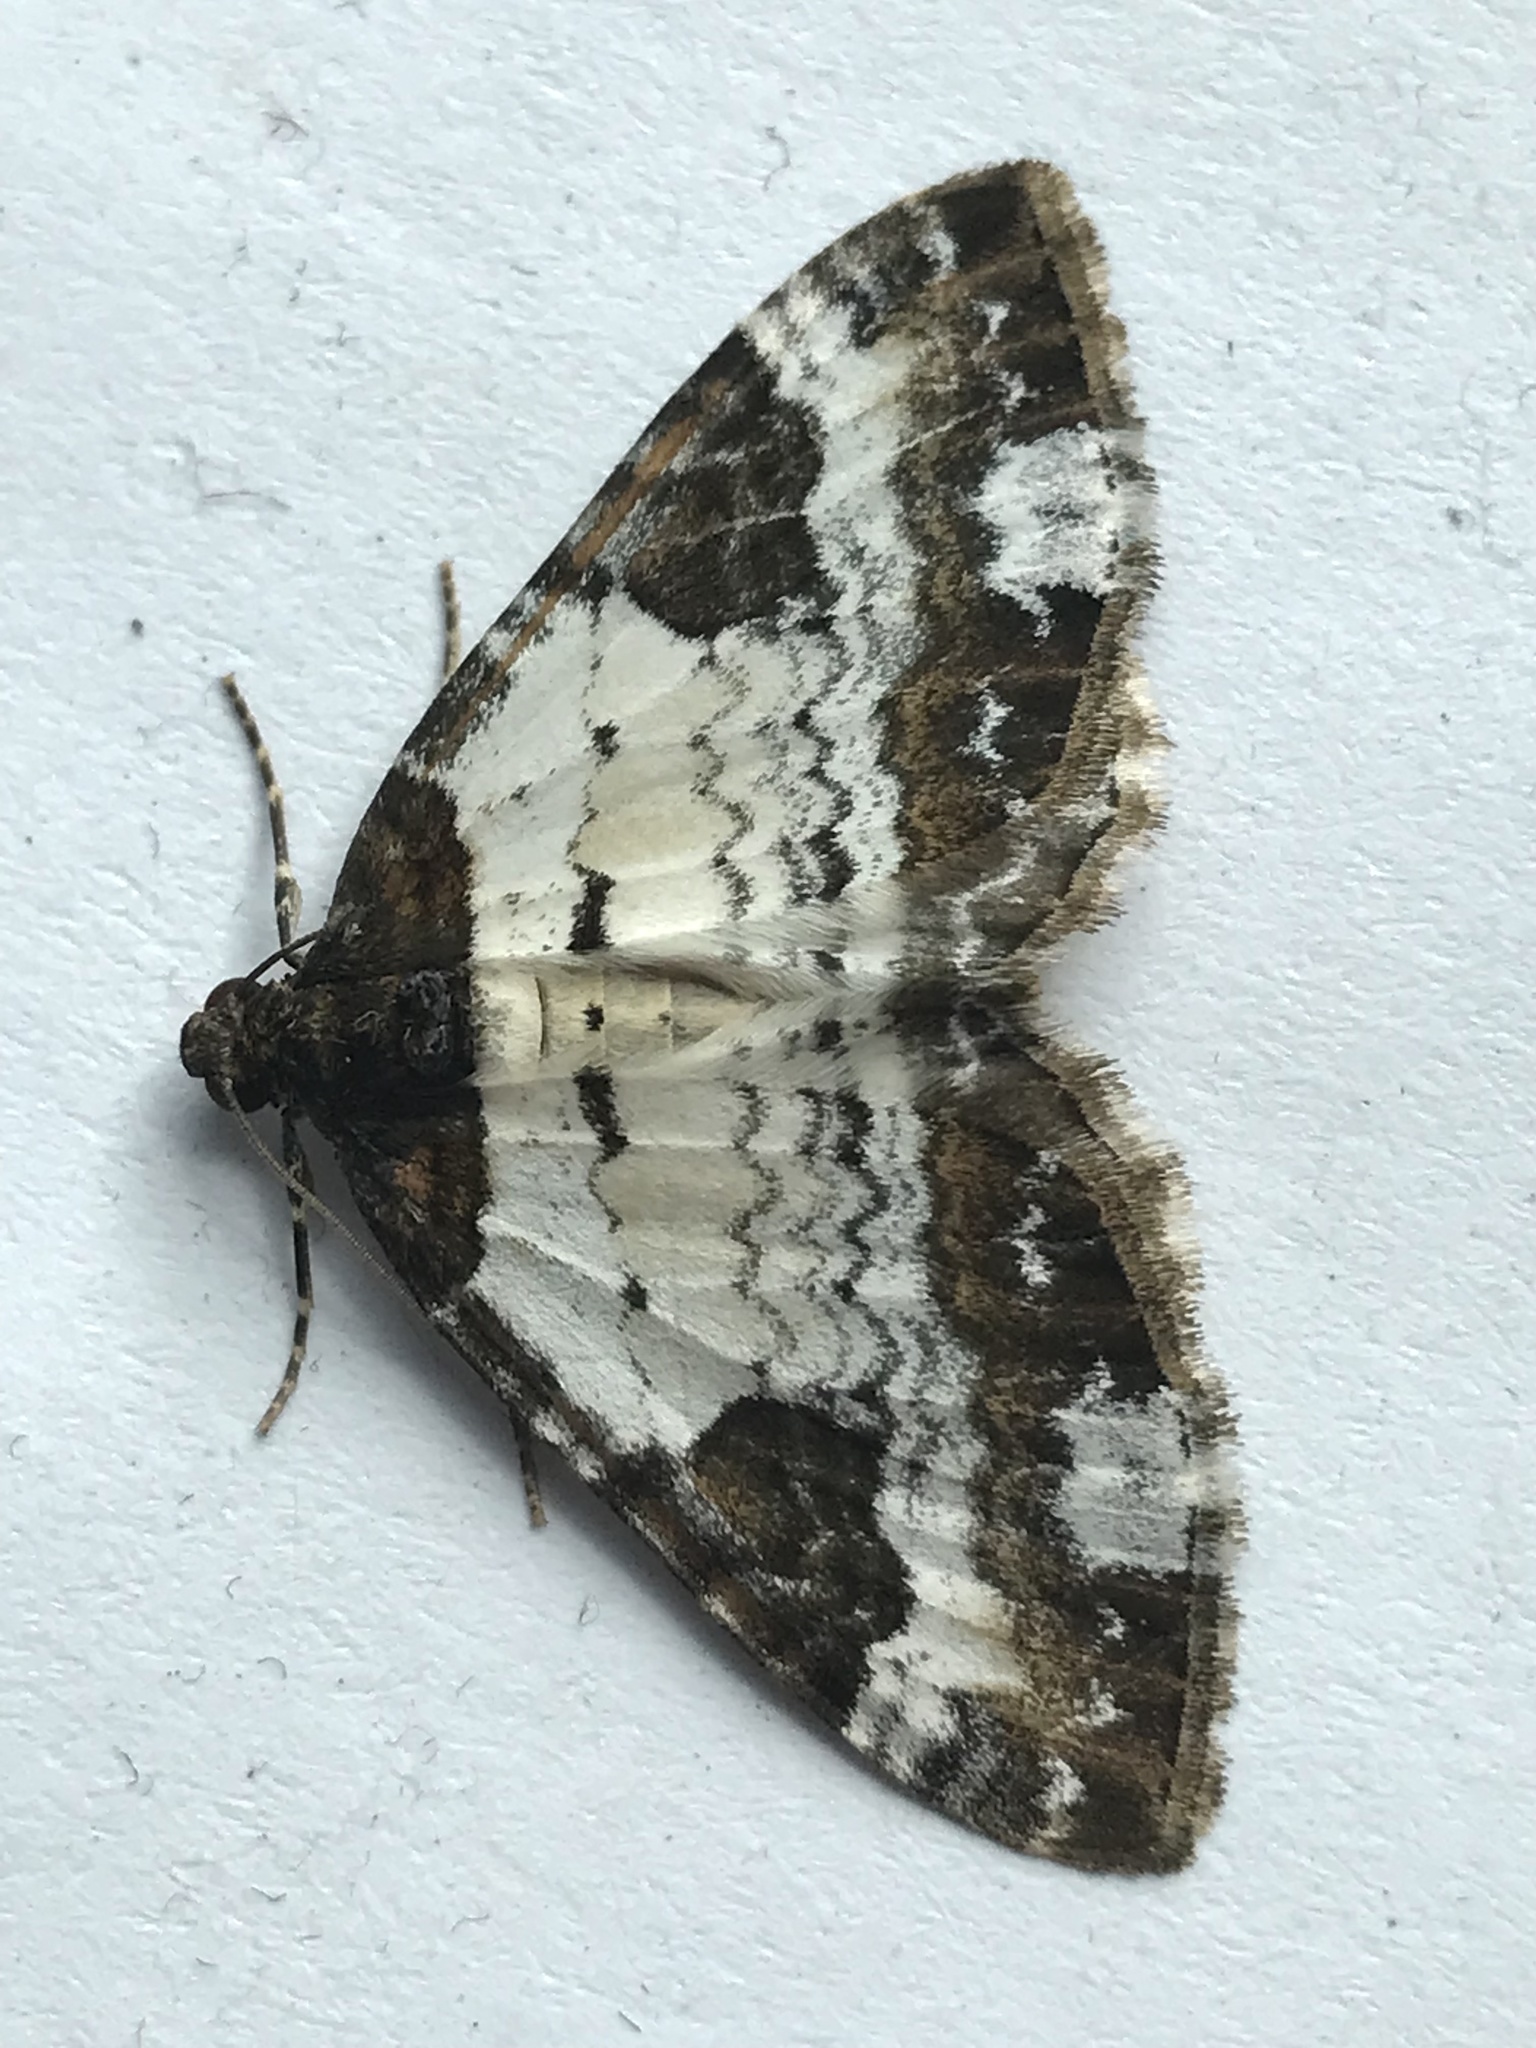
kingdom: Animalia
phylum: Arthropoda
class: Insecta
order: Lepidoptera
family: Geometridae
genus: Melanthia
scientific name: Melanthia procellata
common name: Pretty chalk carpet
